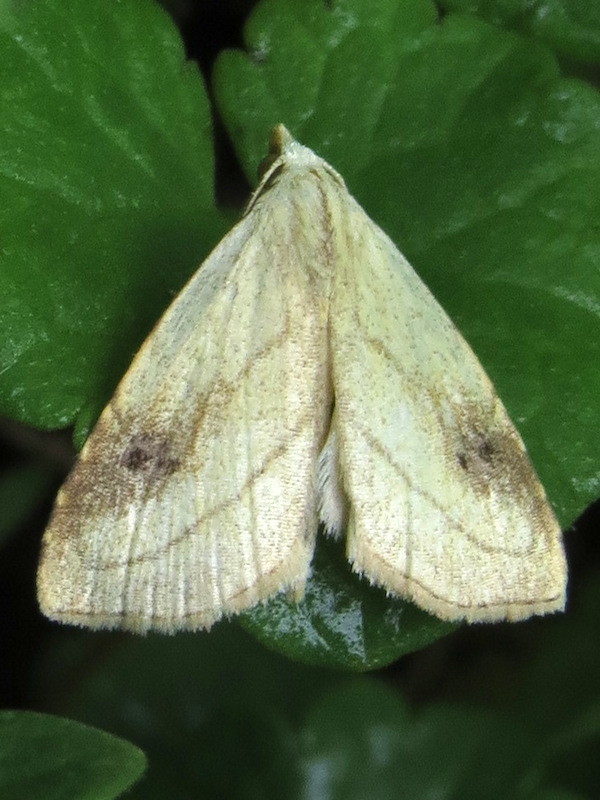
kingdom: Animalia
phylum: Arthropoda
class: Insecta
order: Lepidoptera
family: Erebidae
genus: Rivula
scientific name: Rivula propinqualis
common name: Spotted grass moth
